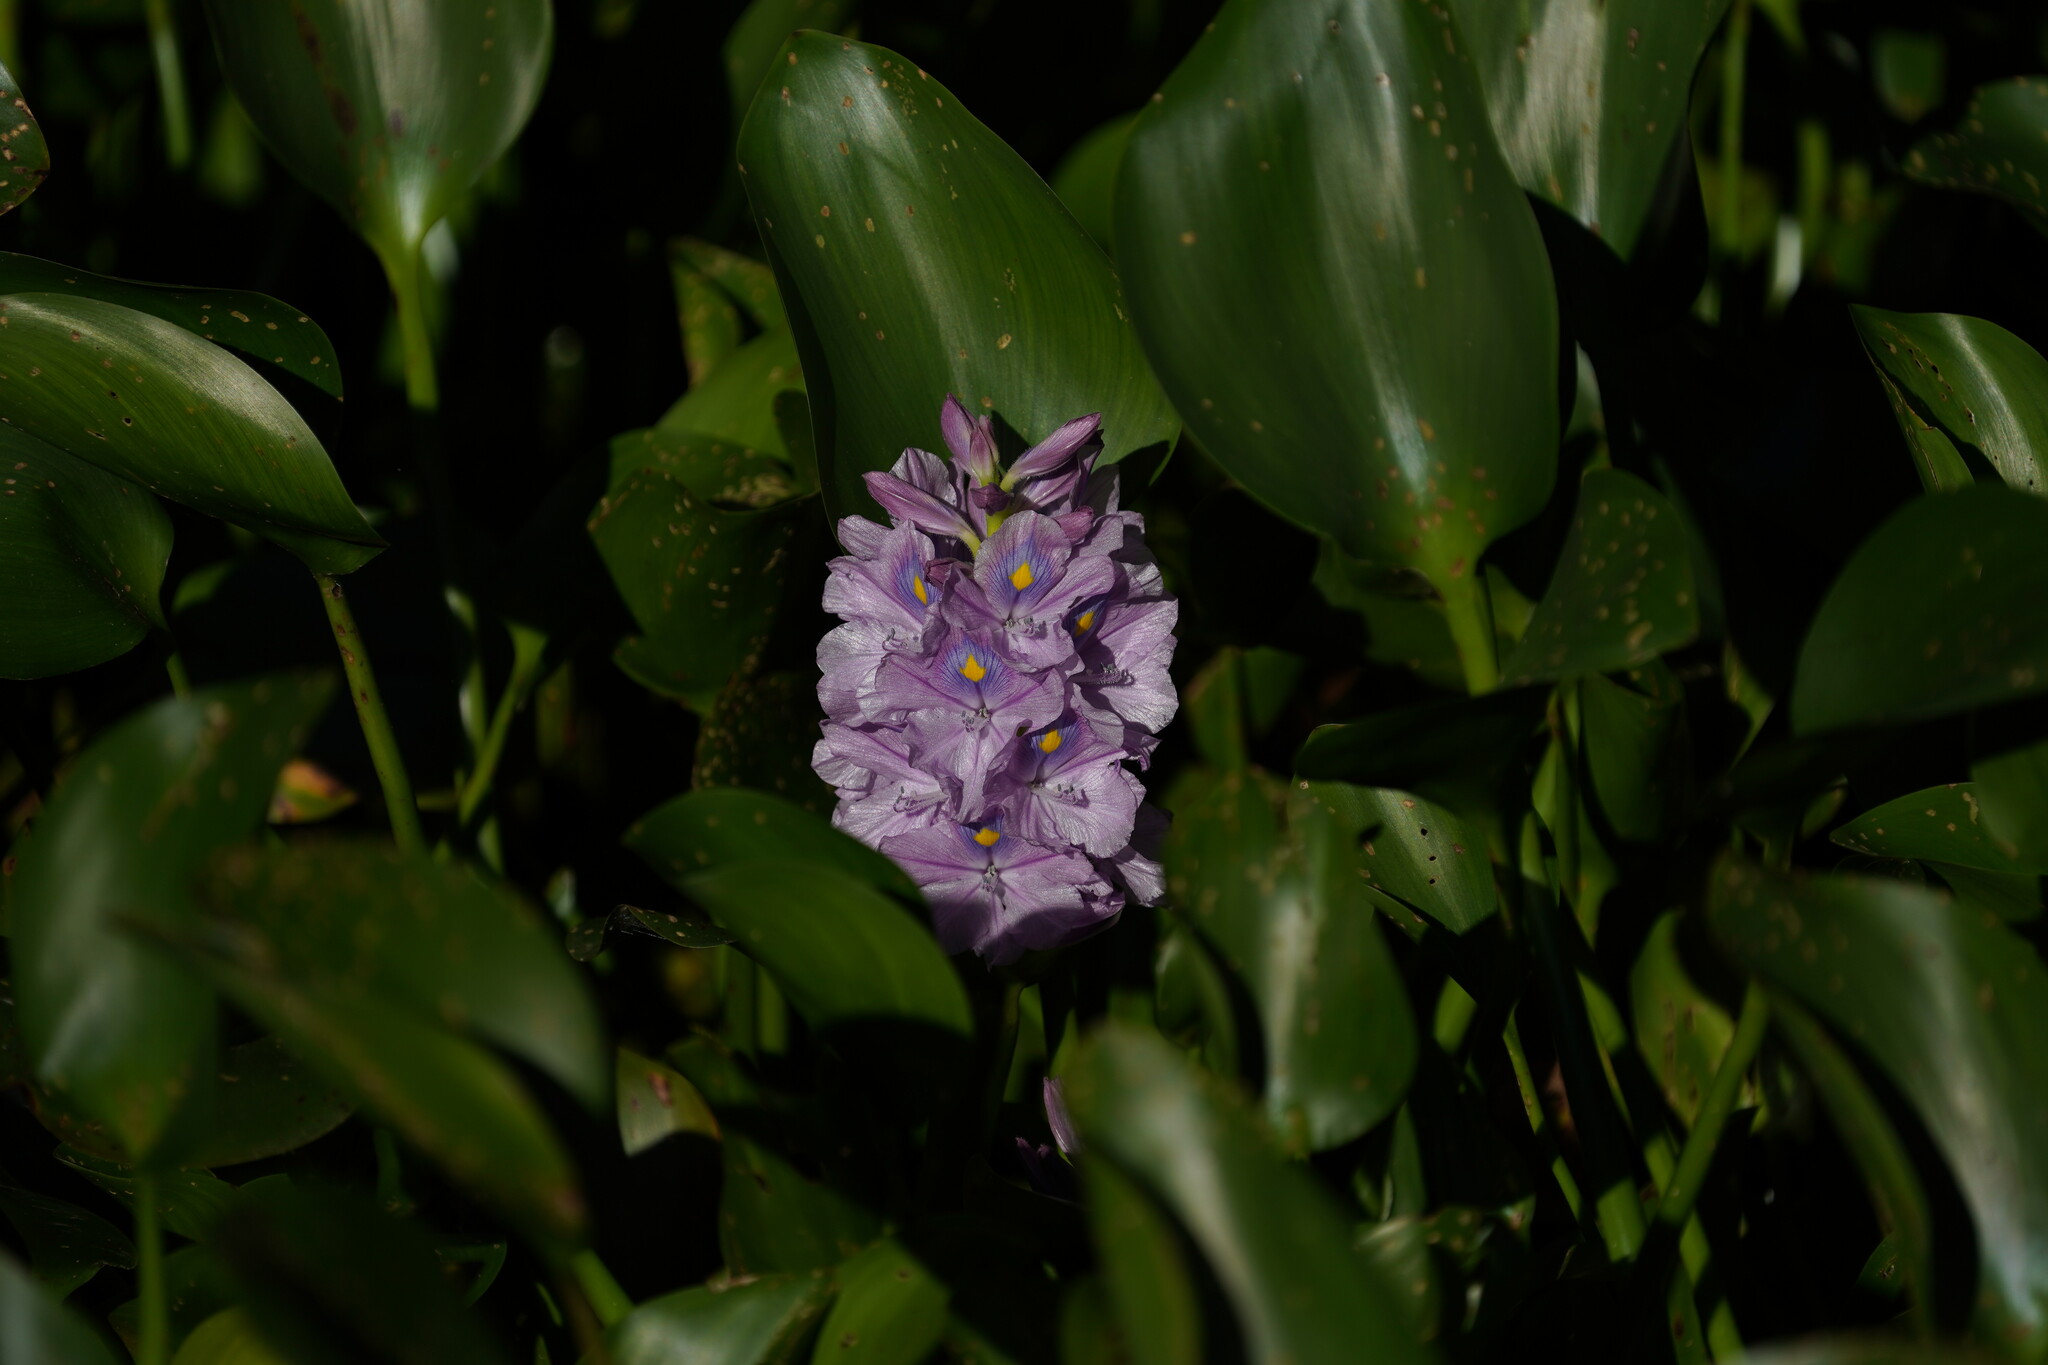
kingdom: Plantae
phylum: Tracheophyta
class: Liliopsida
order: Commelinales
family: Pontederiaceae
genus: Pontederia
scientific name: Pontederia crassipes
